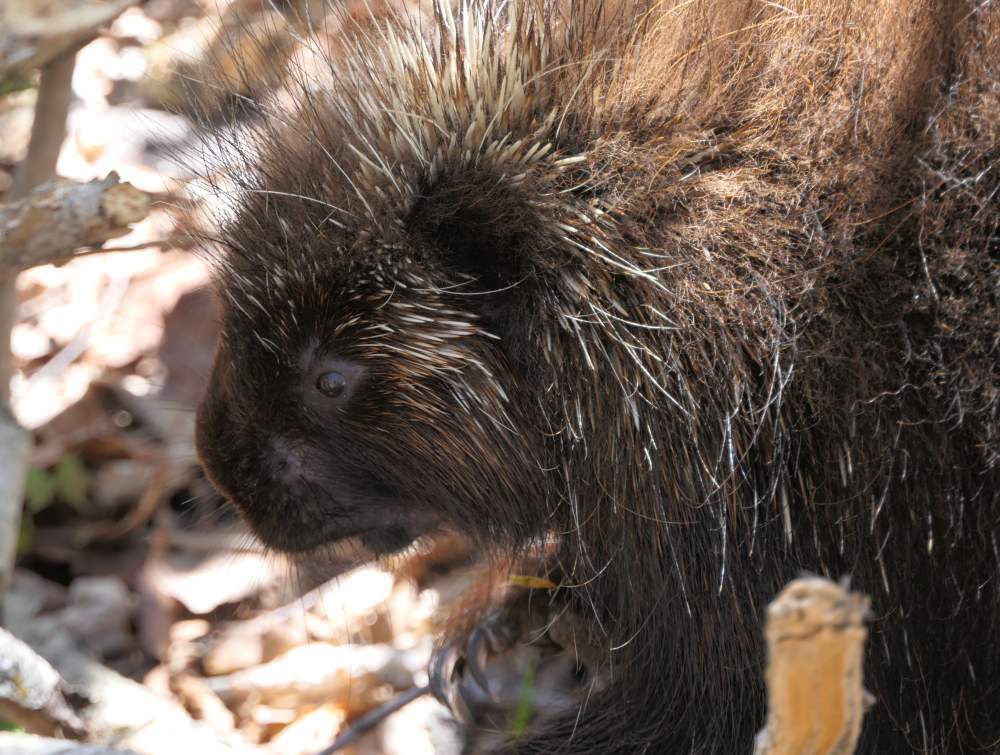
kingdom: Animalia
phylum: Chordata
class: Mammalia
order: Rodentia
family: Erethizontidae
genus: Erethizon
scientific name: Erethizon dorsatus
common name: North american porcupine
